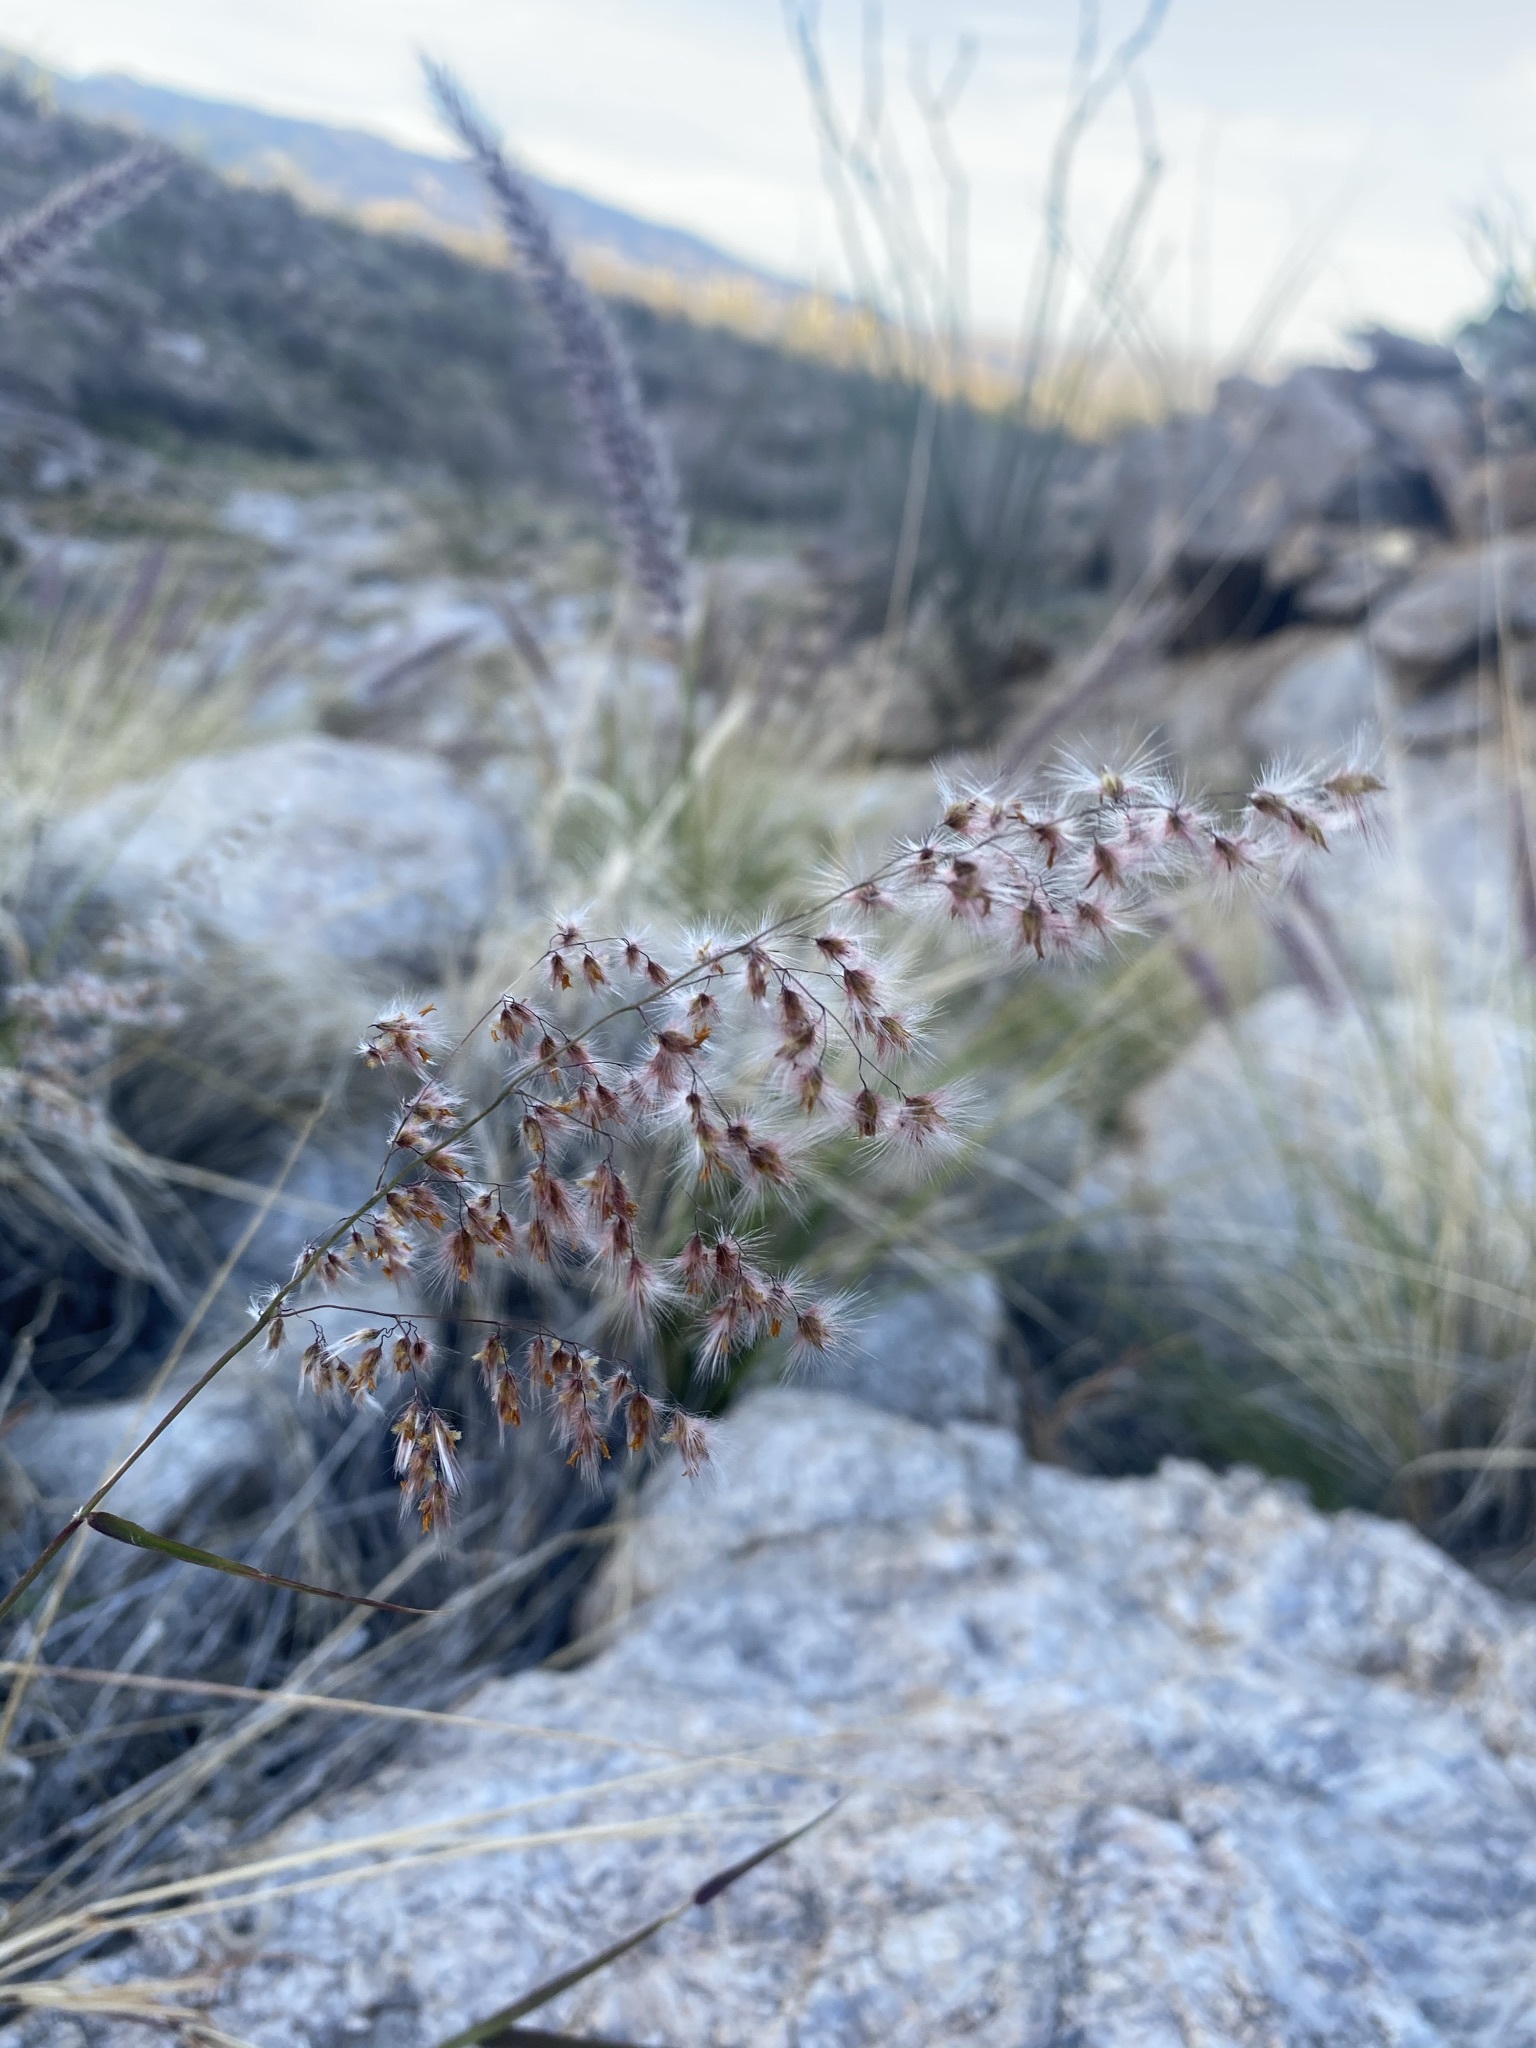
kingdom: Plantae
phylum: Tracheophyta
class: Liliopsida
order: Poales
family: Poaceae
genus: Melinis
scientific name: Melinis repens
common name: Rose natal grass
